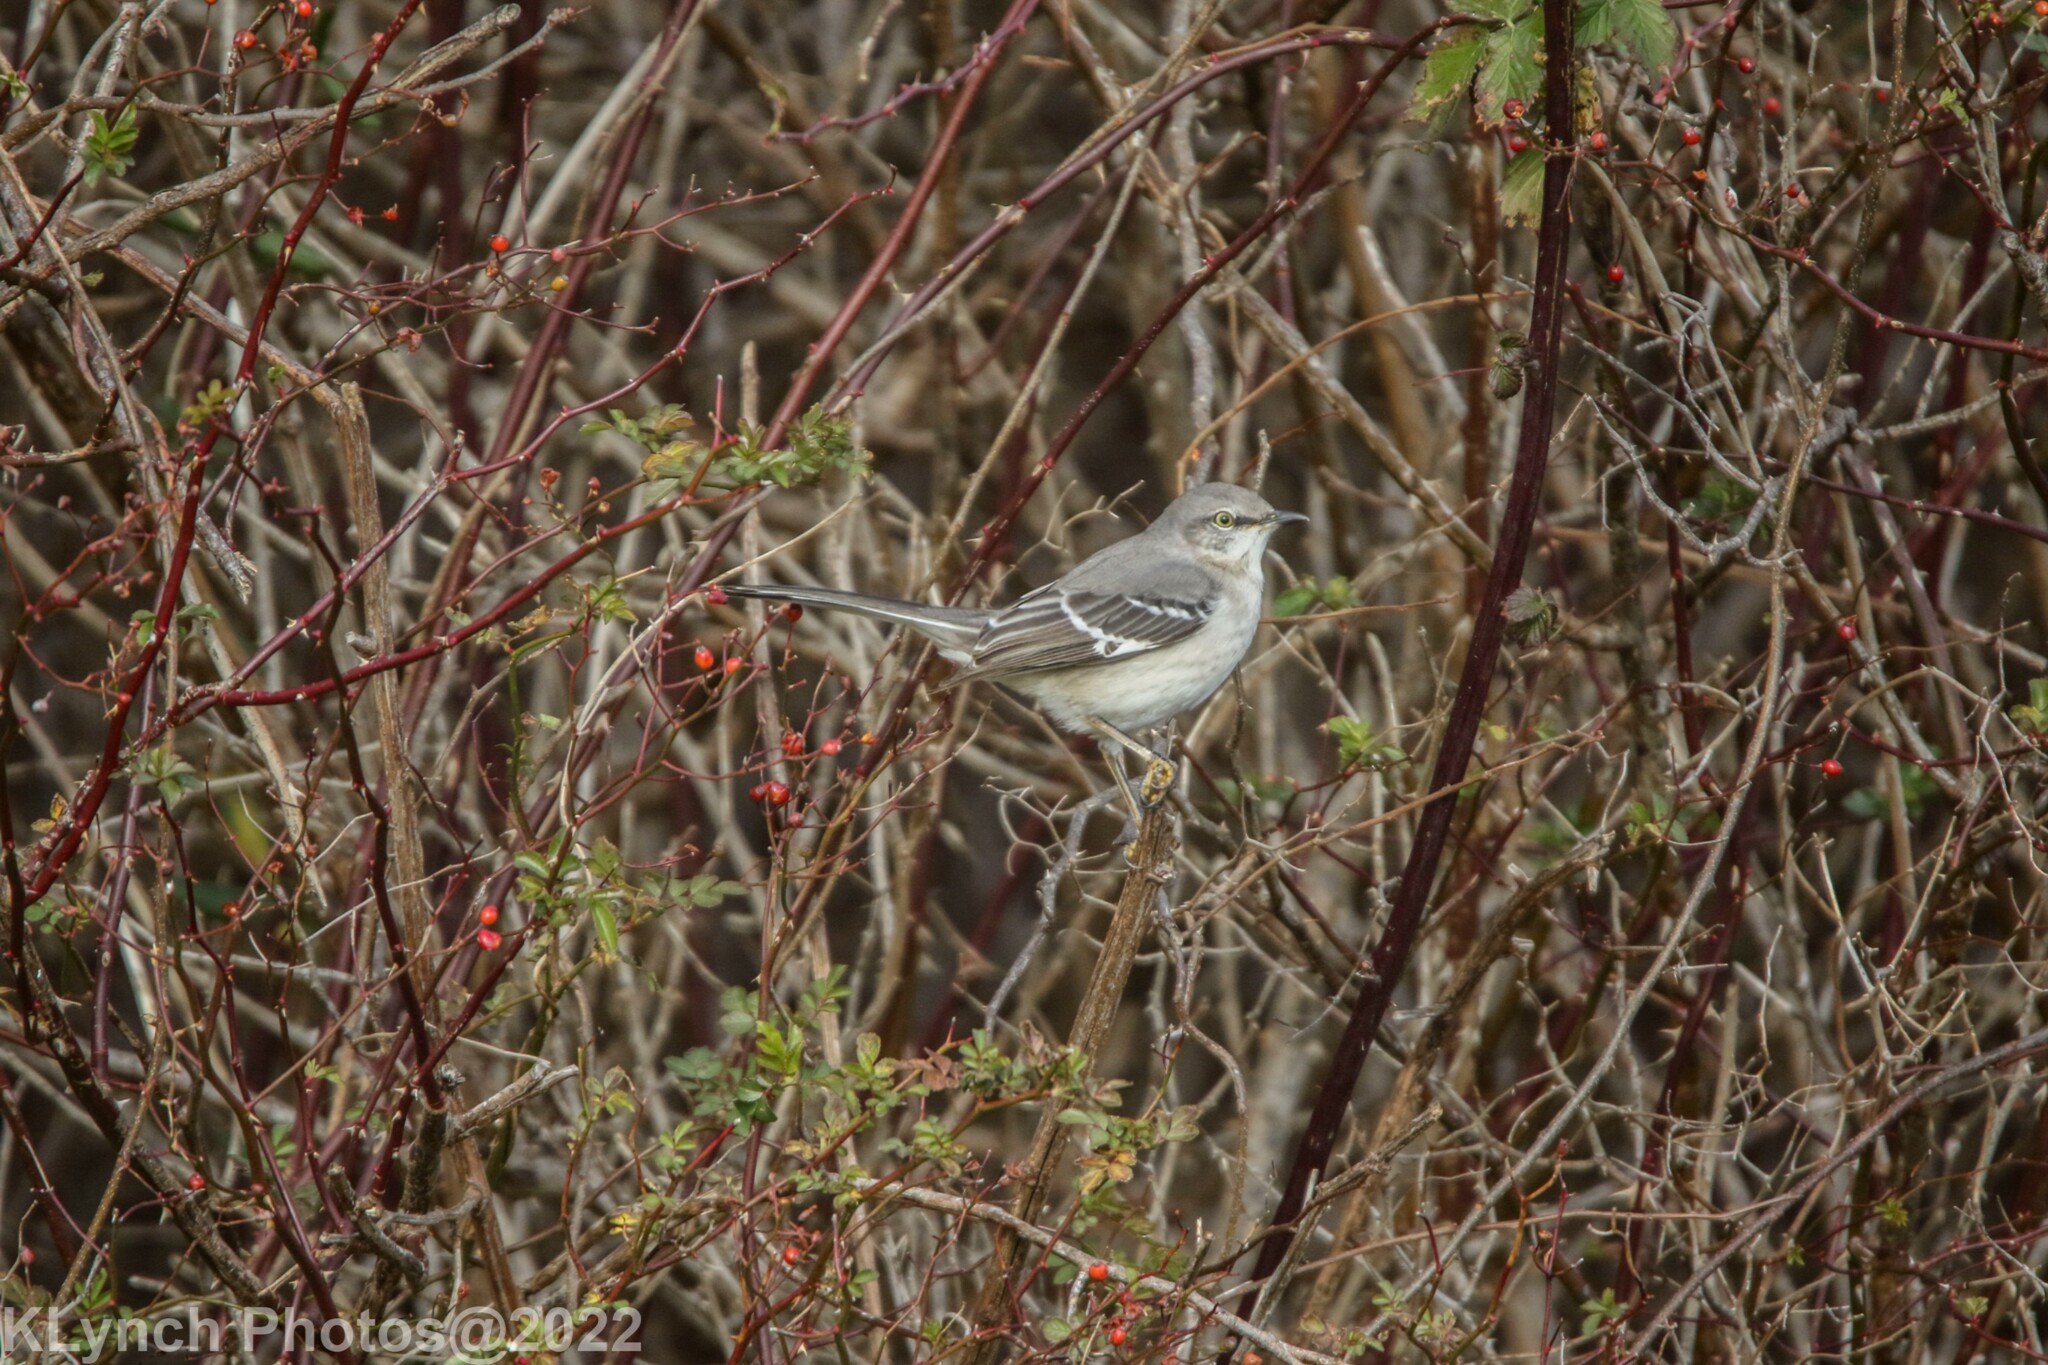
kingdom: Animalia
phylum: Chordata
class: Aves
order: Passeriformes
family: Mimidae
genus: Mimus
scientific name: Mimus polyglottos
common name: Northern mockingbird
